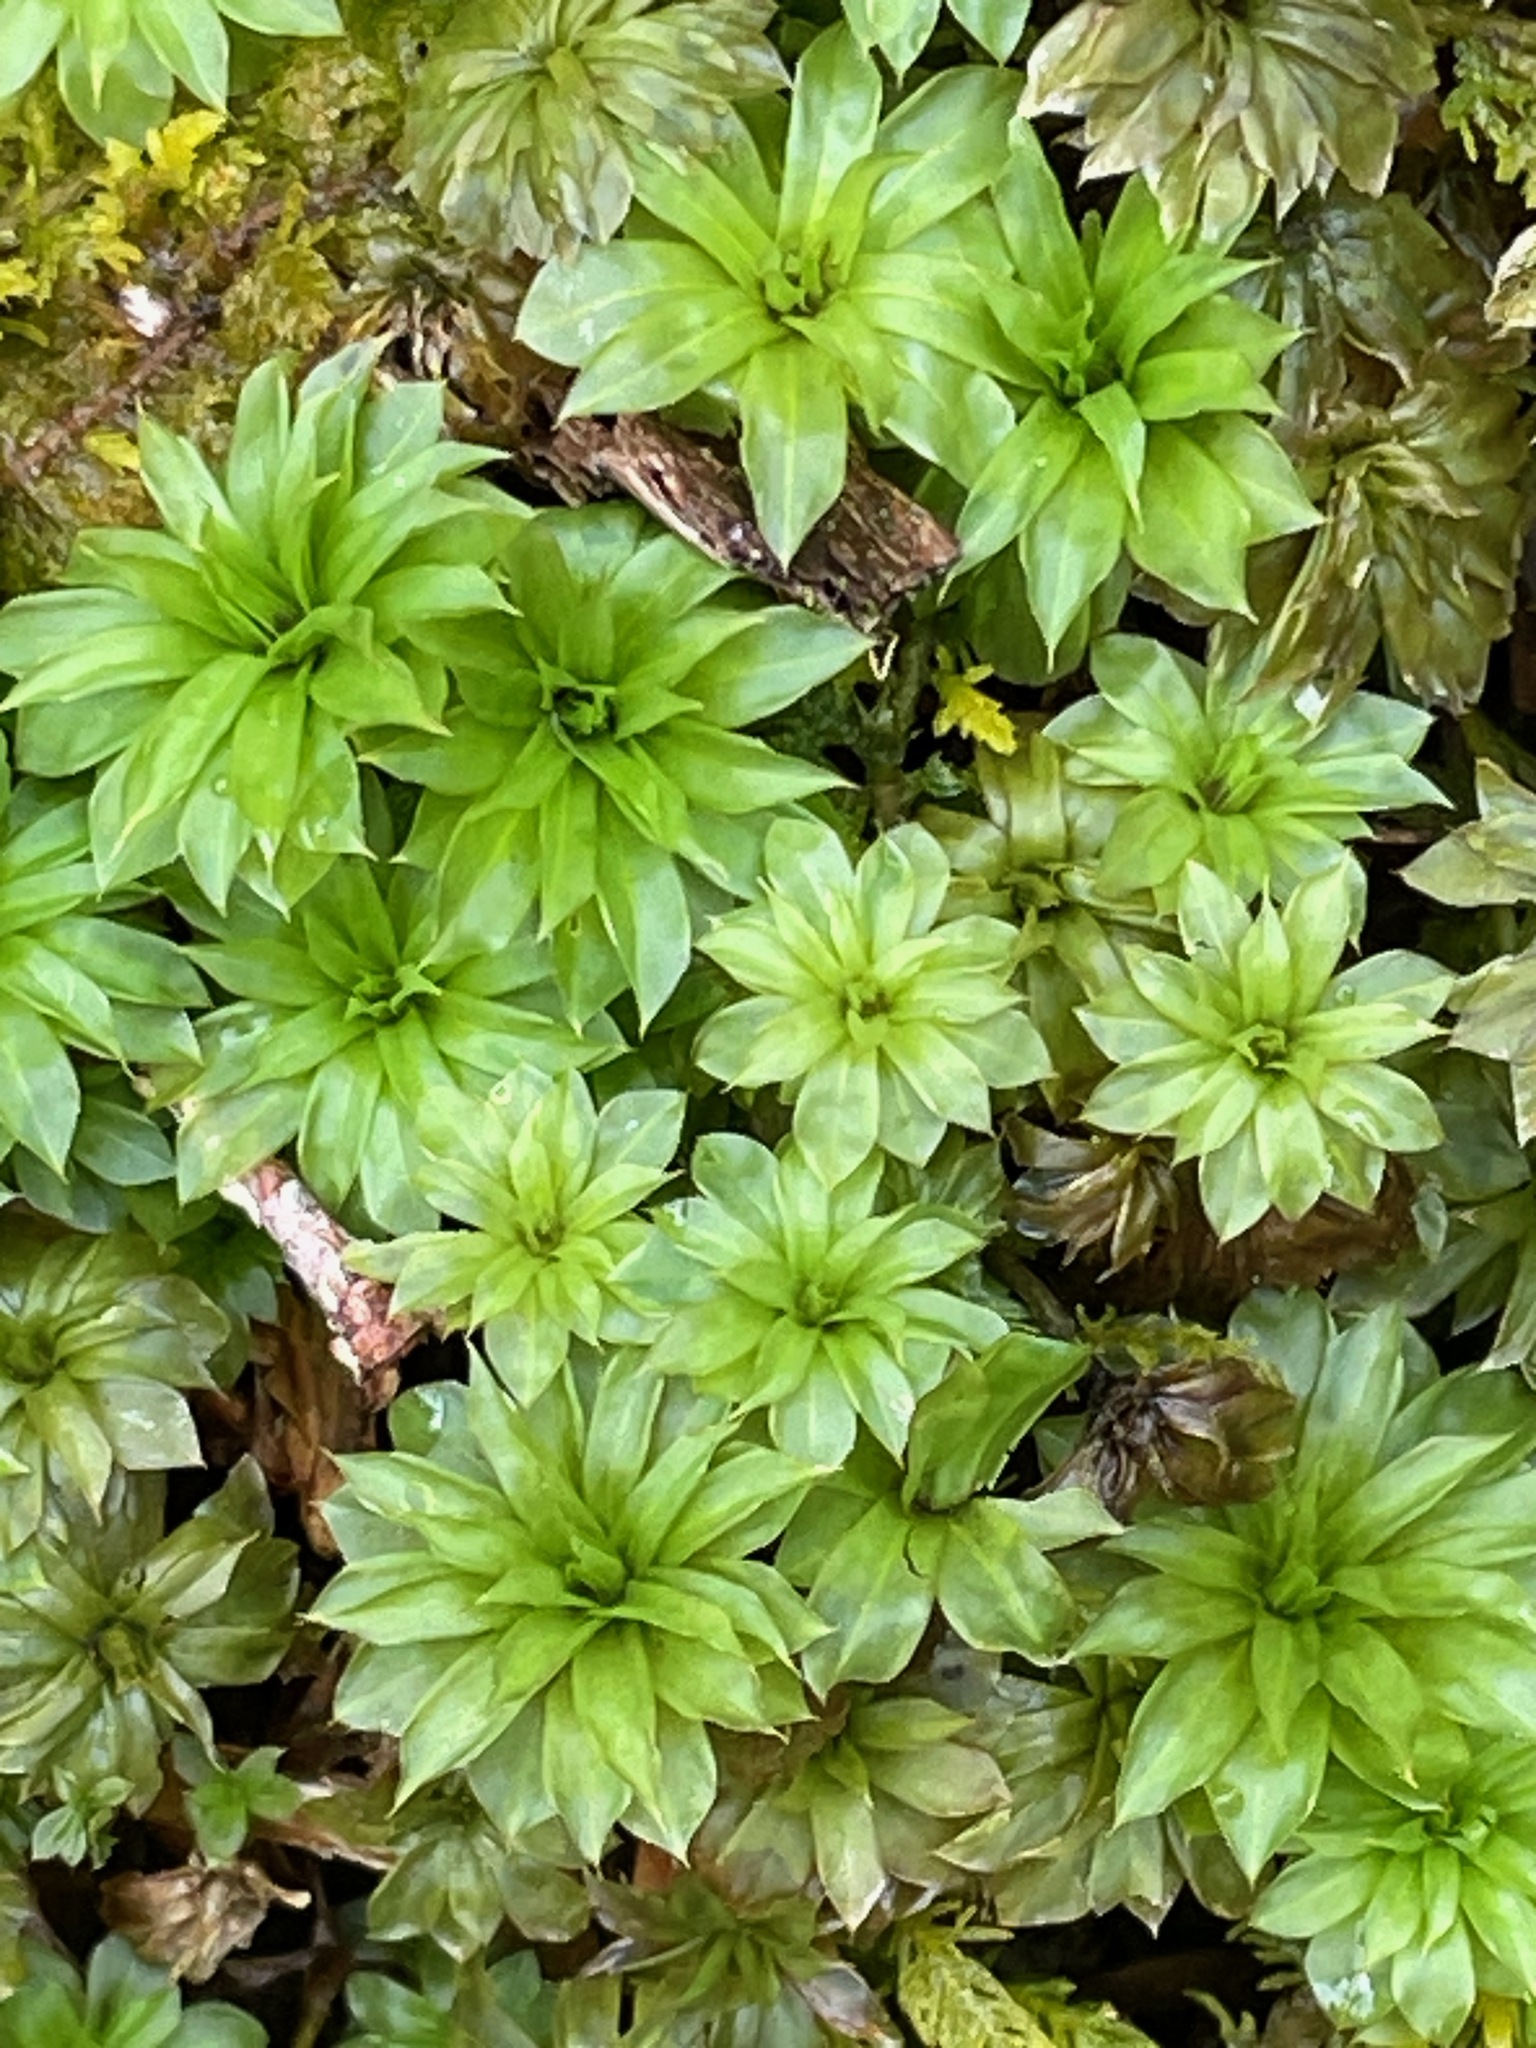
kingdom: Plantae
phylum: Bryophyta
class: Bryopsida
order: Bryales
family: Bryaceae
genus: Rhodobryum
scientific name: Rhodobryum ontariense
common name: Ontario rhodobryum moss
